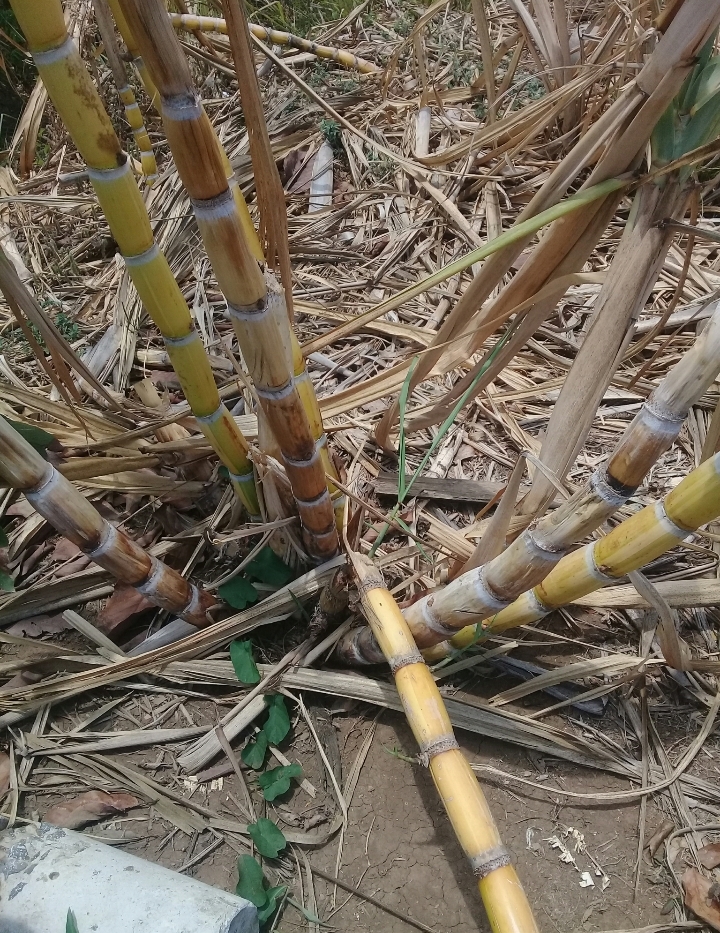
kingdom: Plantae
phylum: Tracheophyta
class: Liliopsida
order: Poales
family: Poaceae
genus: Saccharum
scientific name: Saccharum officinarum
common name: Sugarcane
